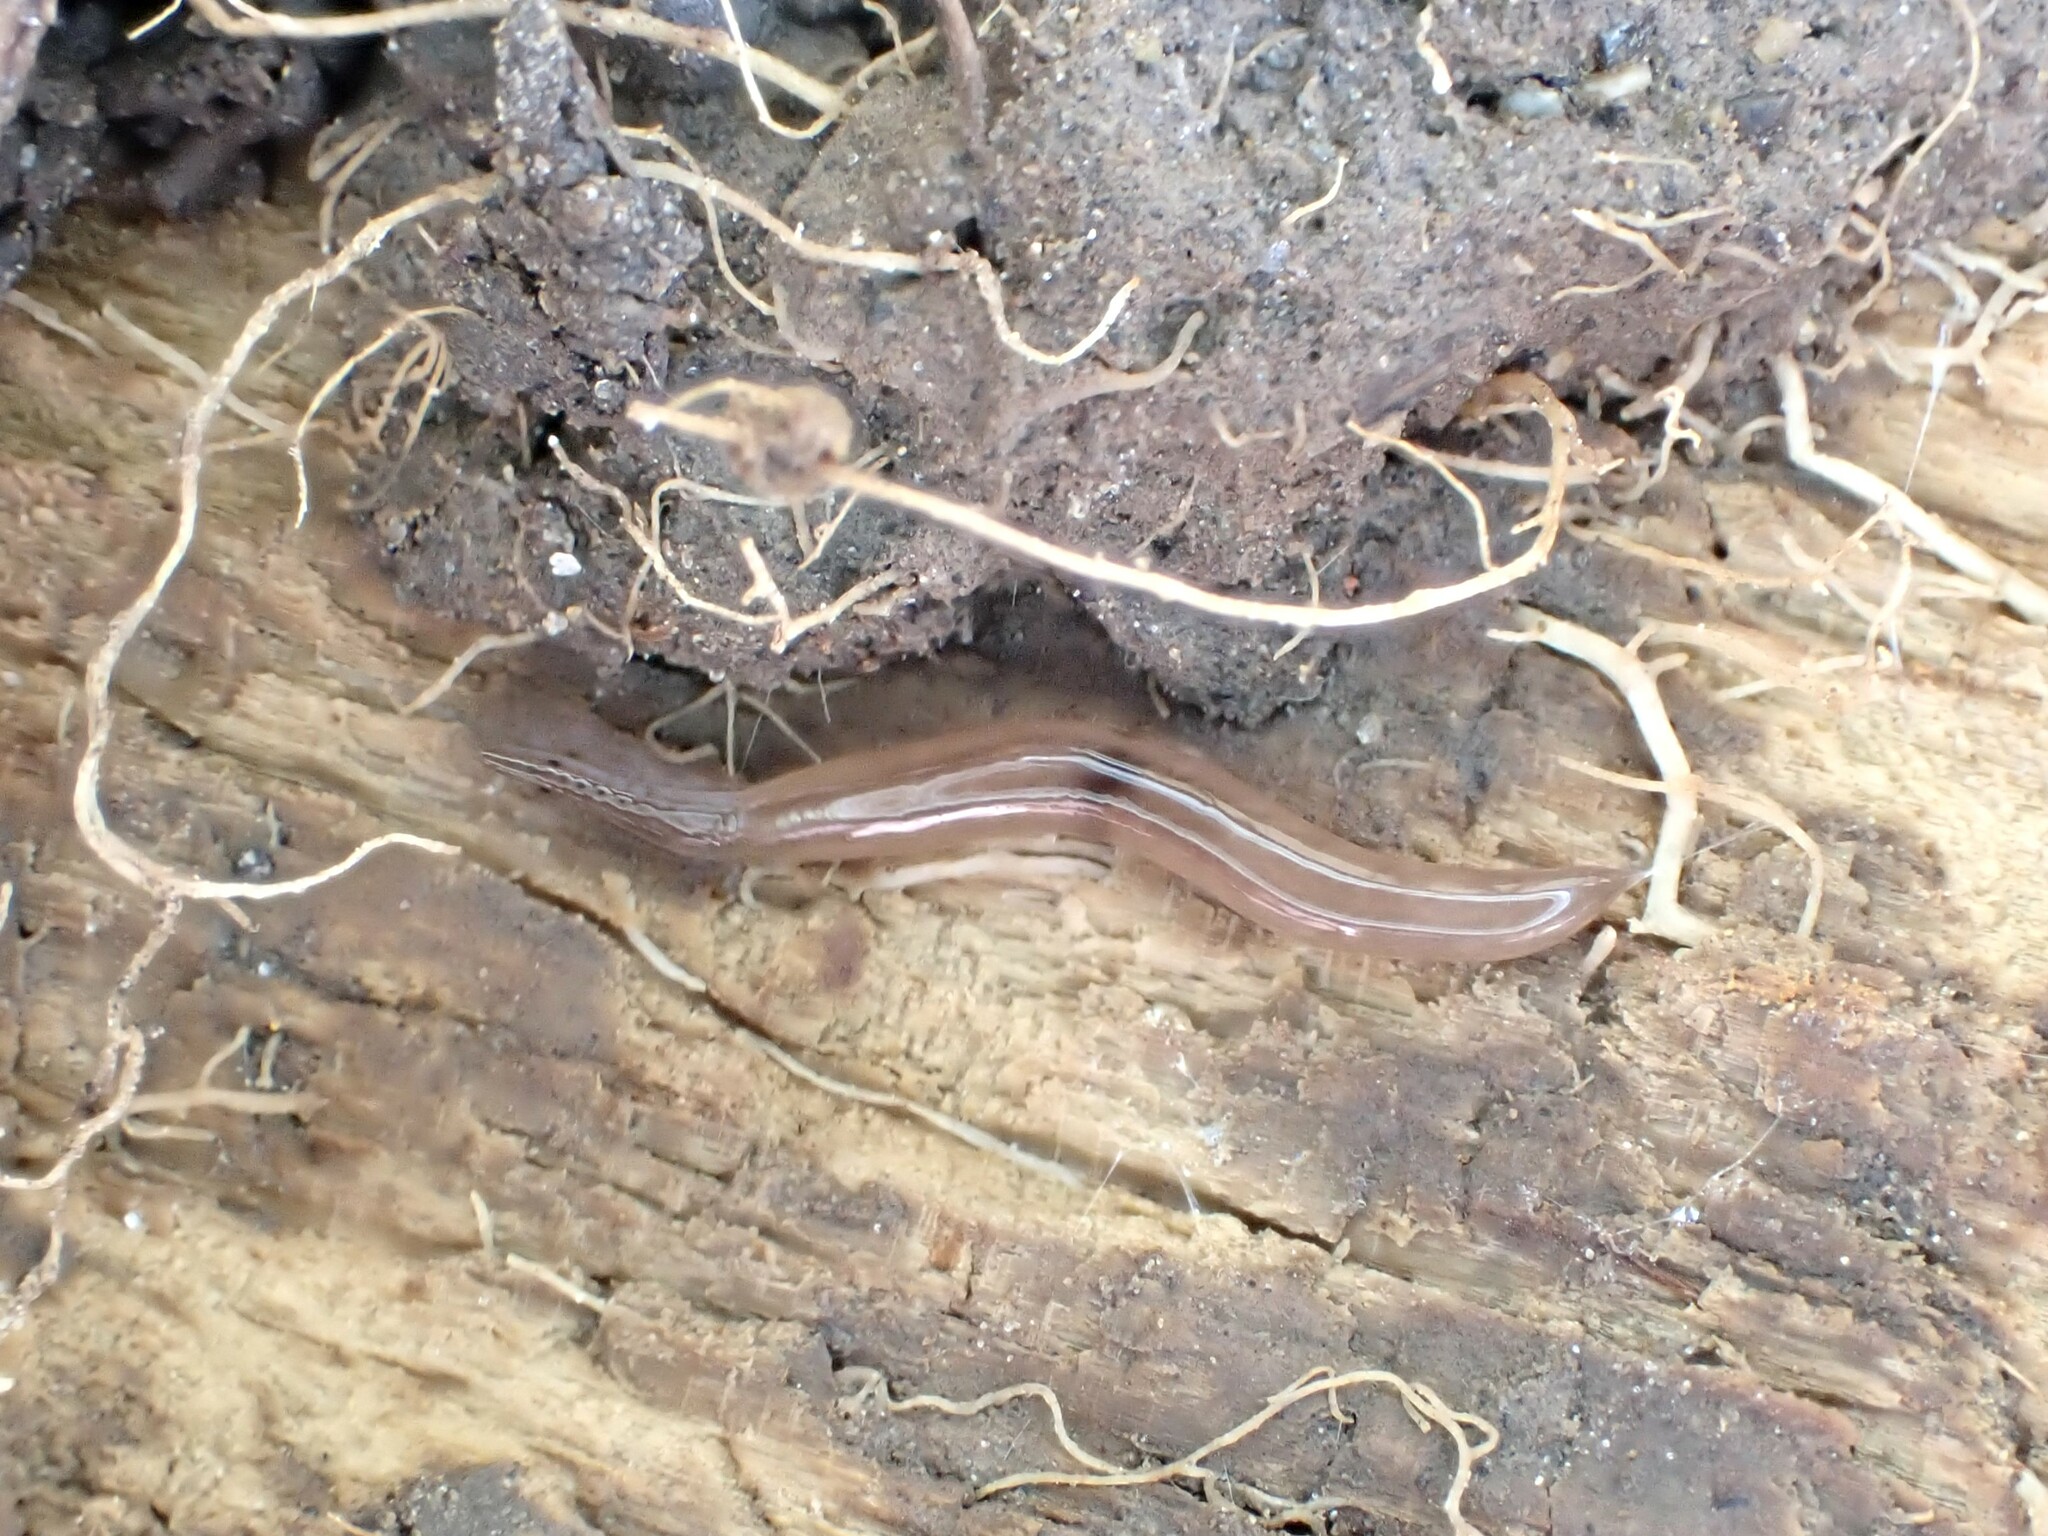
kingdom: Animalia
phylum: Platyhelminthes
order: Tricladida
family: Geoplanidae
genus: Rhynchodemus
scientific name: Rhynchodemus sylvaticus
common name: A flatworm
